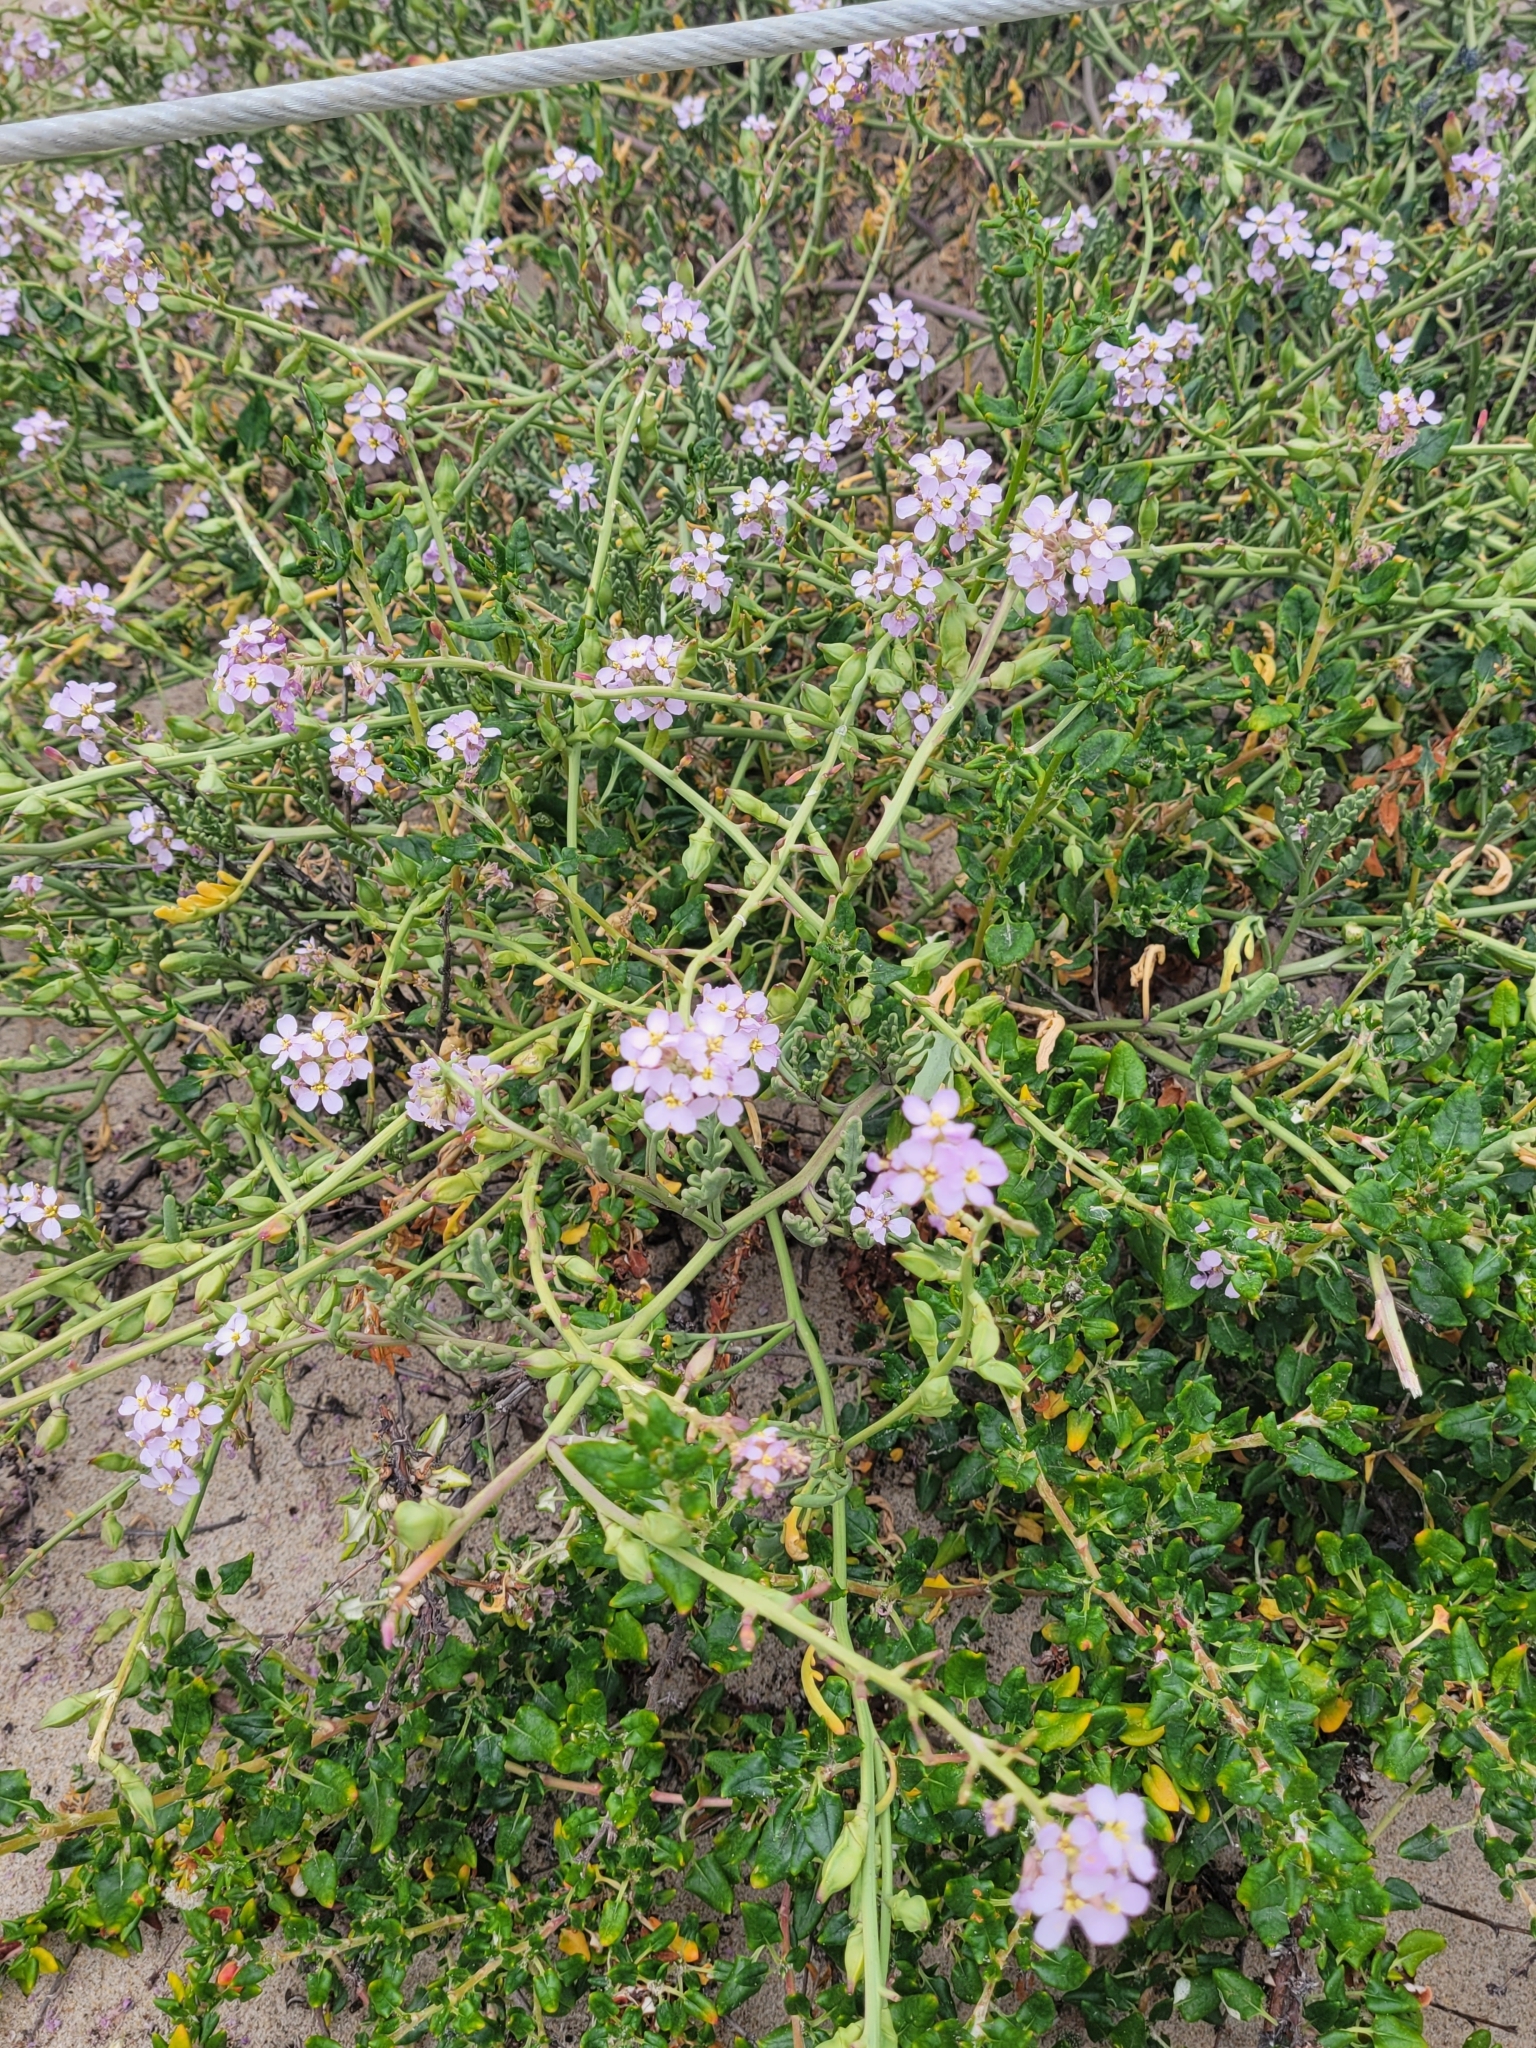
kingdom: Plantae
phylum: Tracheophyta
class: Magnoliopsida
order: Brassicales
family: Brassicaceae
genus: Cakile
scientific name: Cakile maritima
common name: Sea rocket
